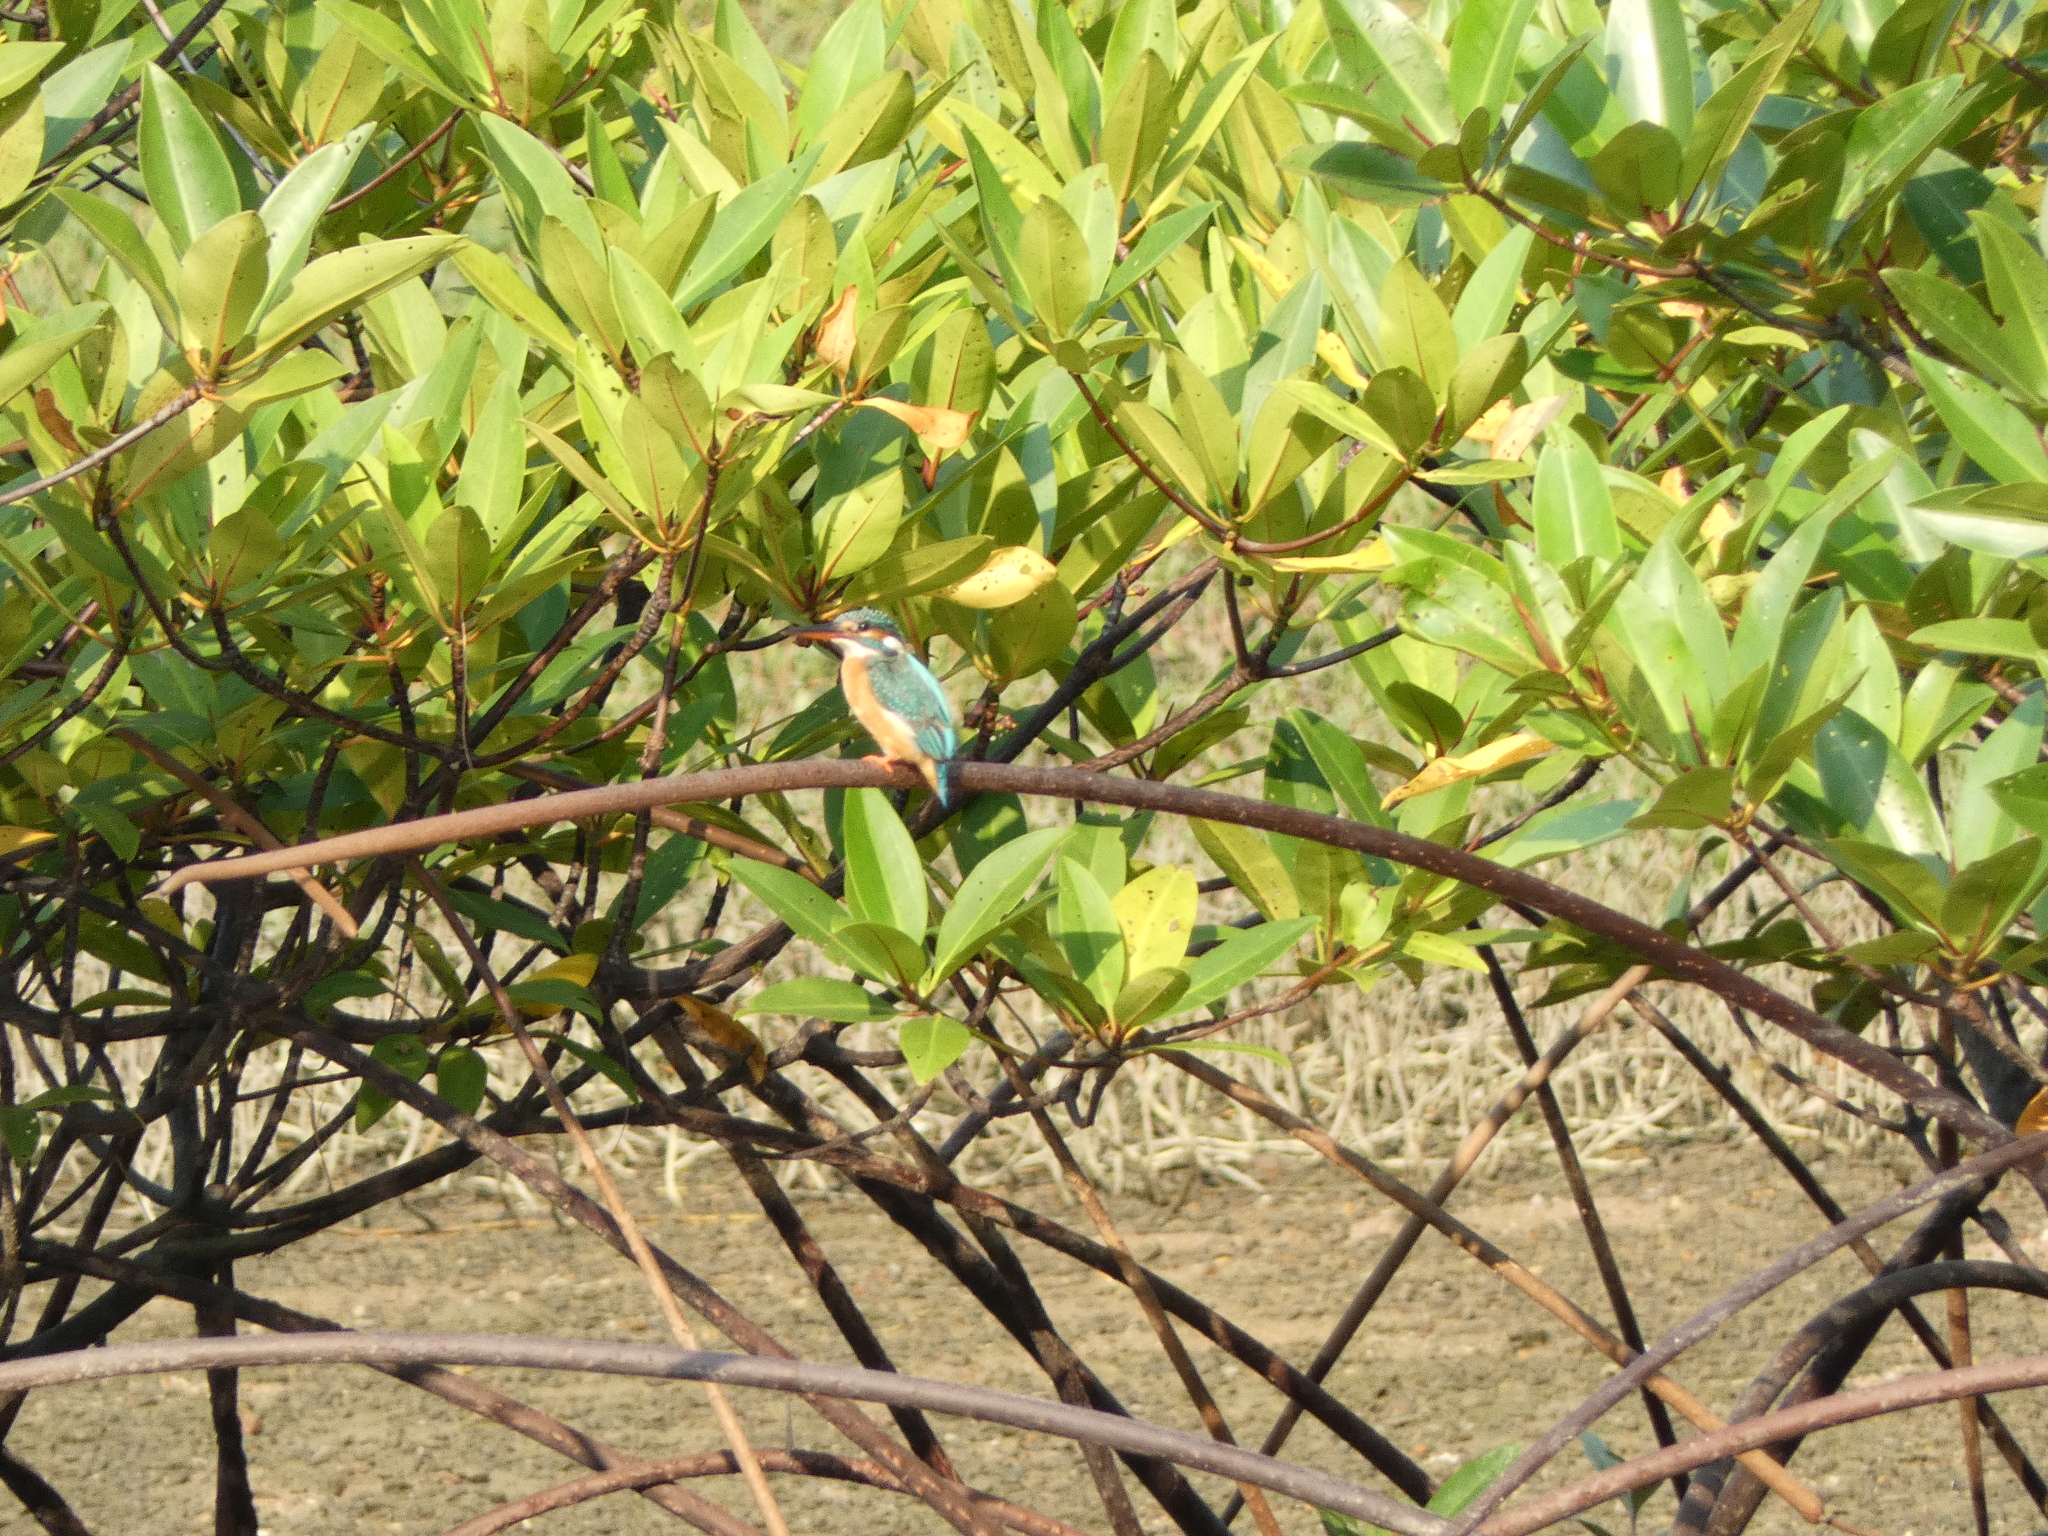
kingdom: Animalia
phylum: Chordata
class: Aves
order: Coraciiformes
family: Alcedinidae
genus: Alcedo
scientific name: Alcedo atthis
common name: Common kingfisher
